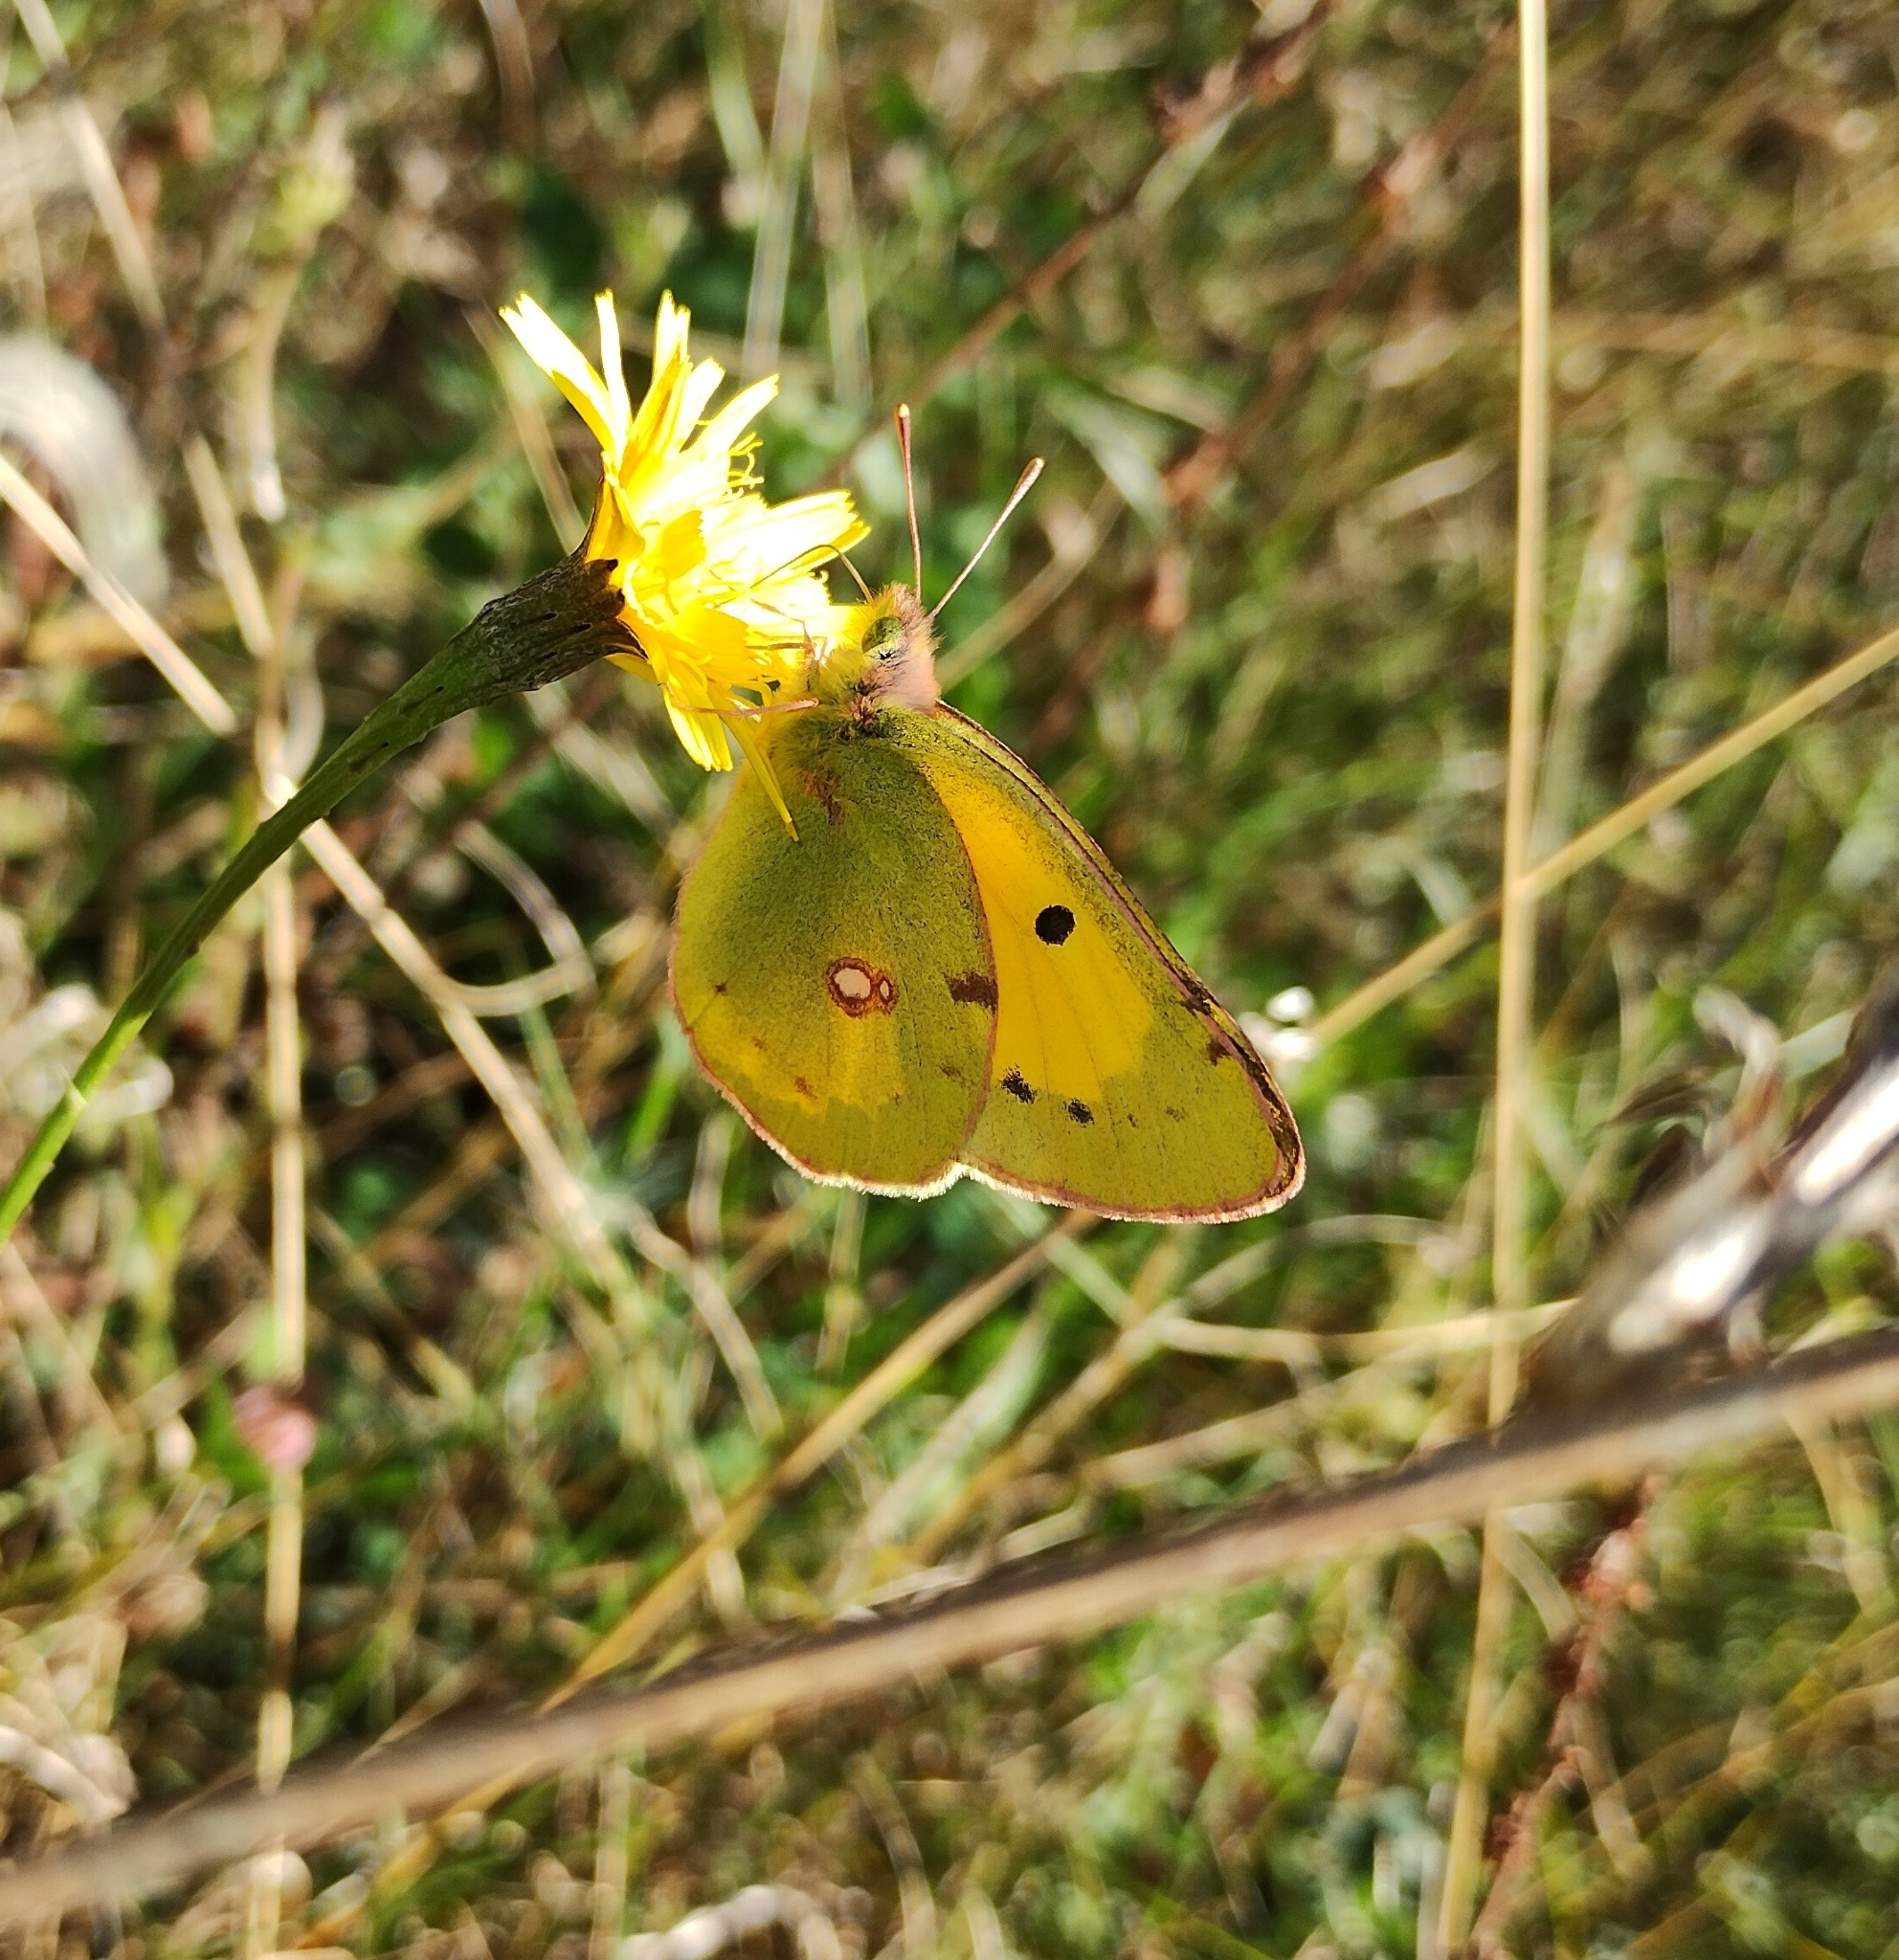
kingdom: Animalia
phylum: Arthropoda
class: Insecta
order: Lepidoptera
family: Pieridae
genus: Colias
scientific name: Colias croceus
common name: Clouded yellow
